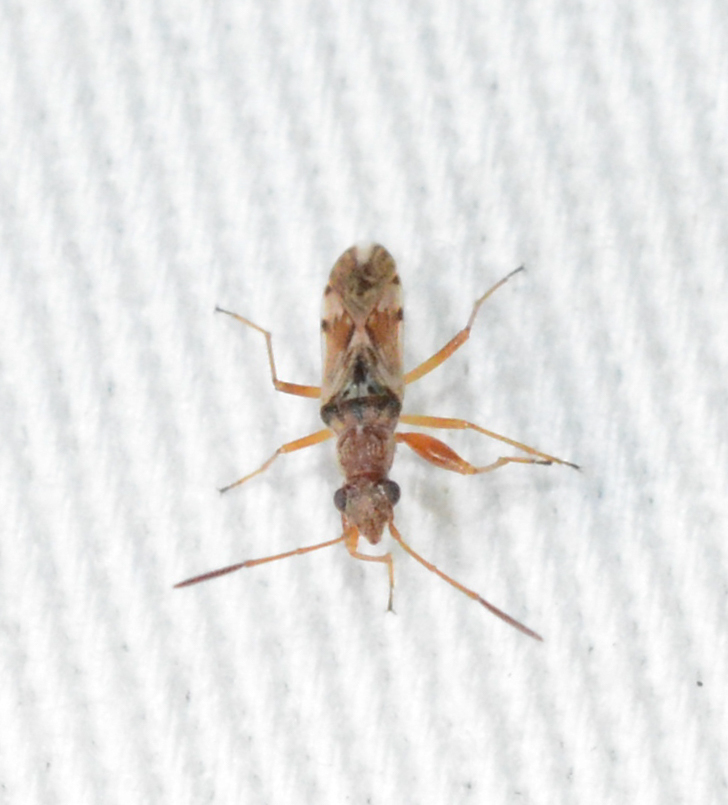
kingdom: Animalia
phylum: Arthropoda
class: Insecta
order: Hemiptera
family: Rhyparochromidae
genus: Neopamera
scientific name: Neopamera bilobata
